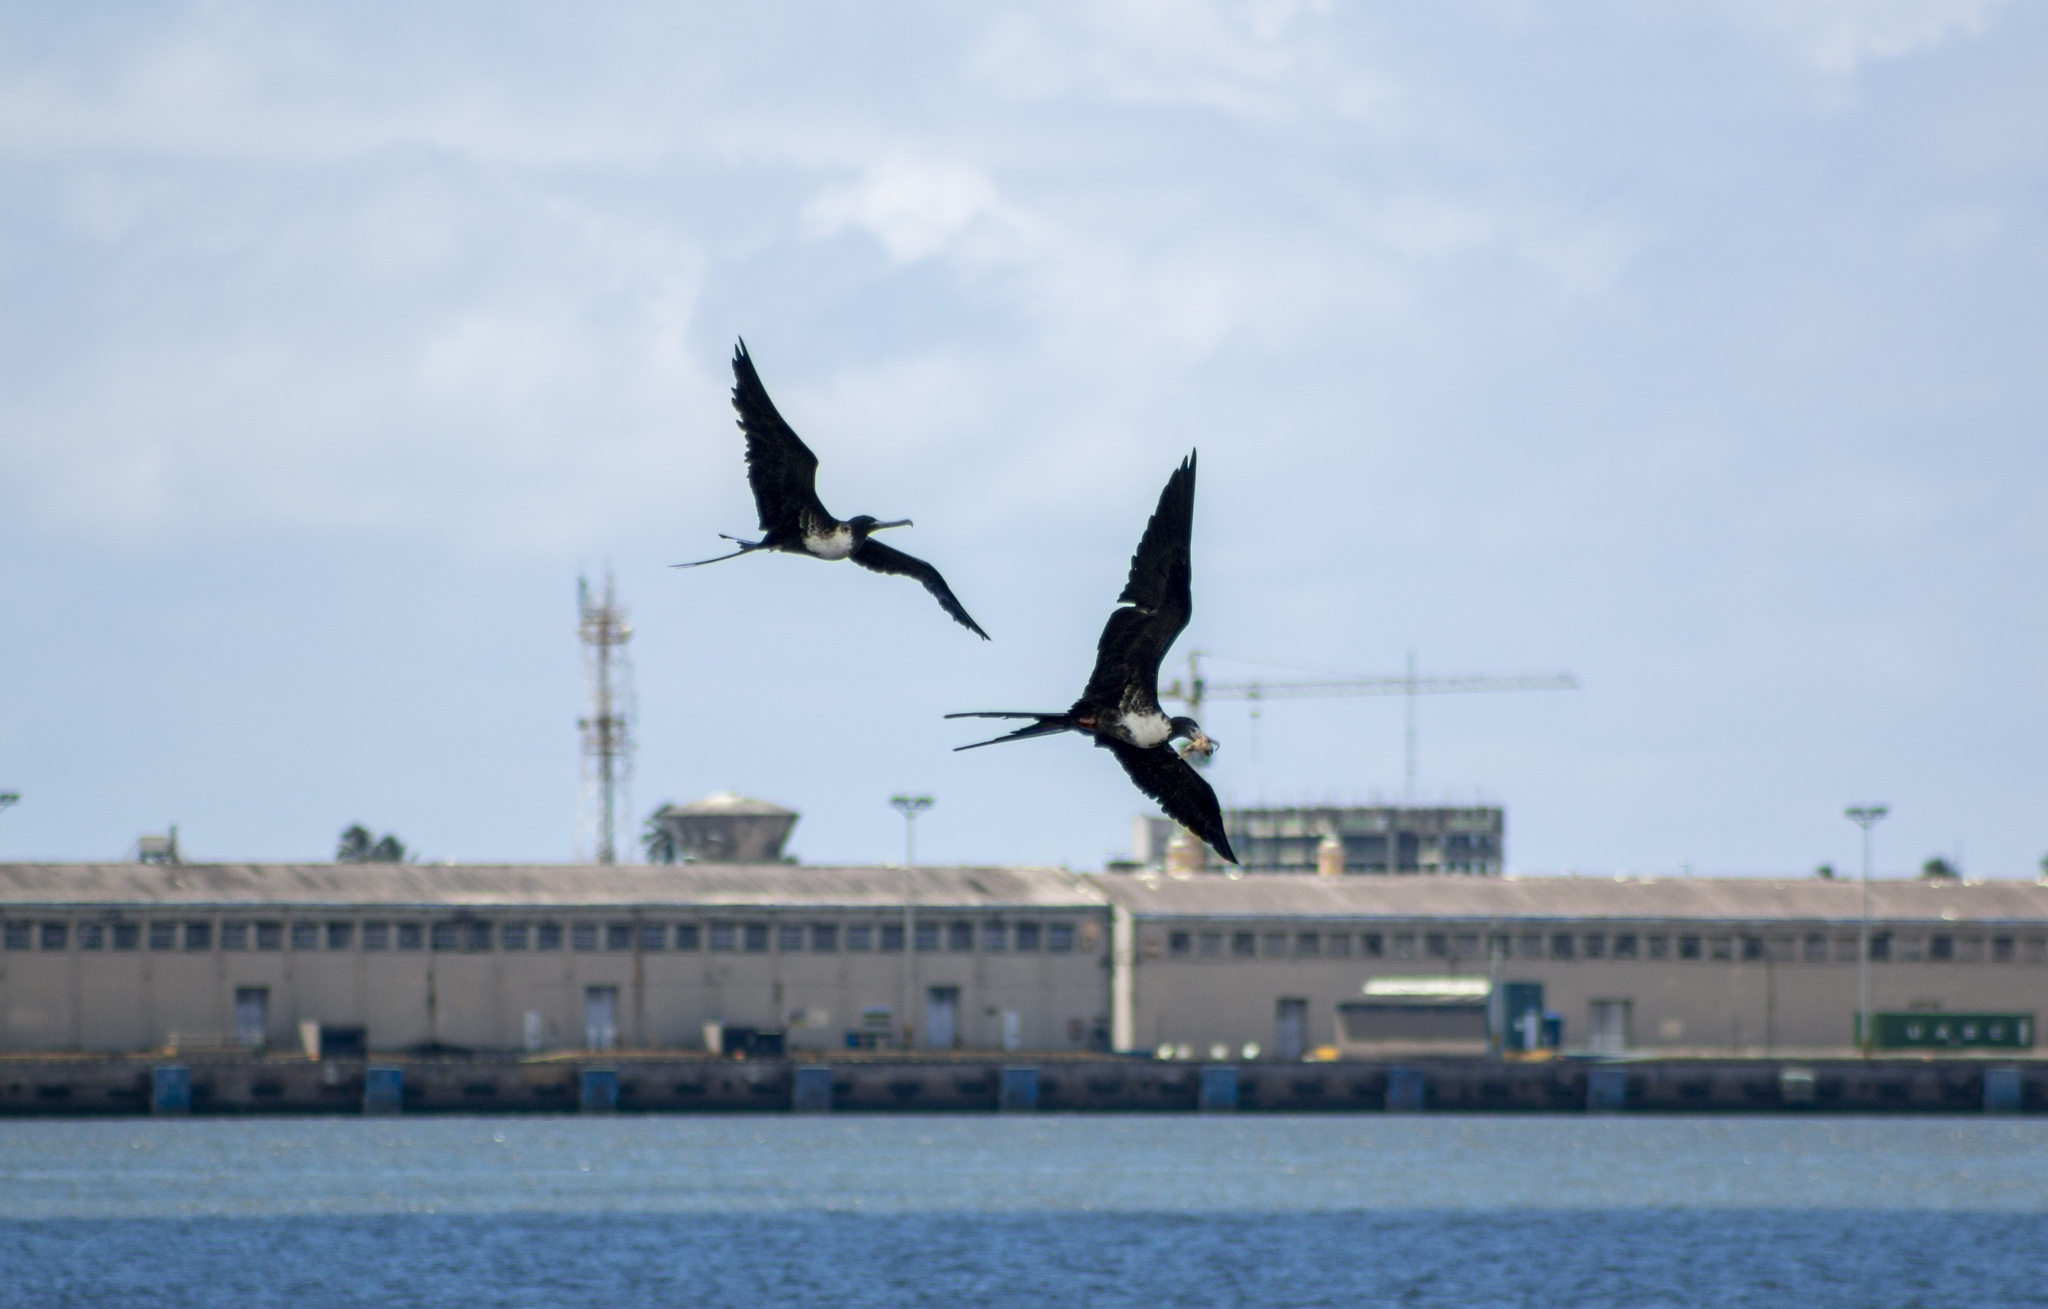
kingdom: Animalia
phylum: Chordata
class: Aves
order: Suliformes
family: Fregatidae
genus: Fregata
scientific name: Fregata magnificens
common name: Magnificent frigatebird
